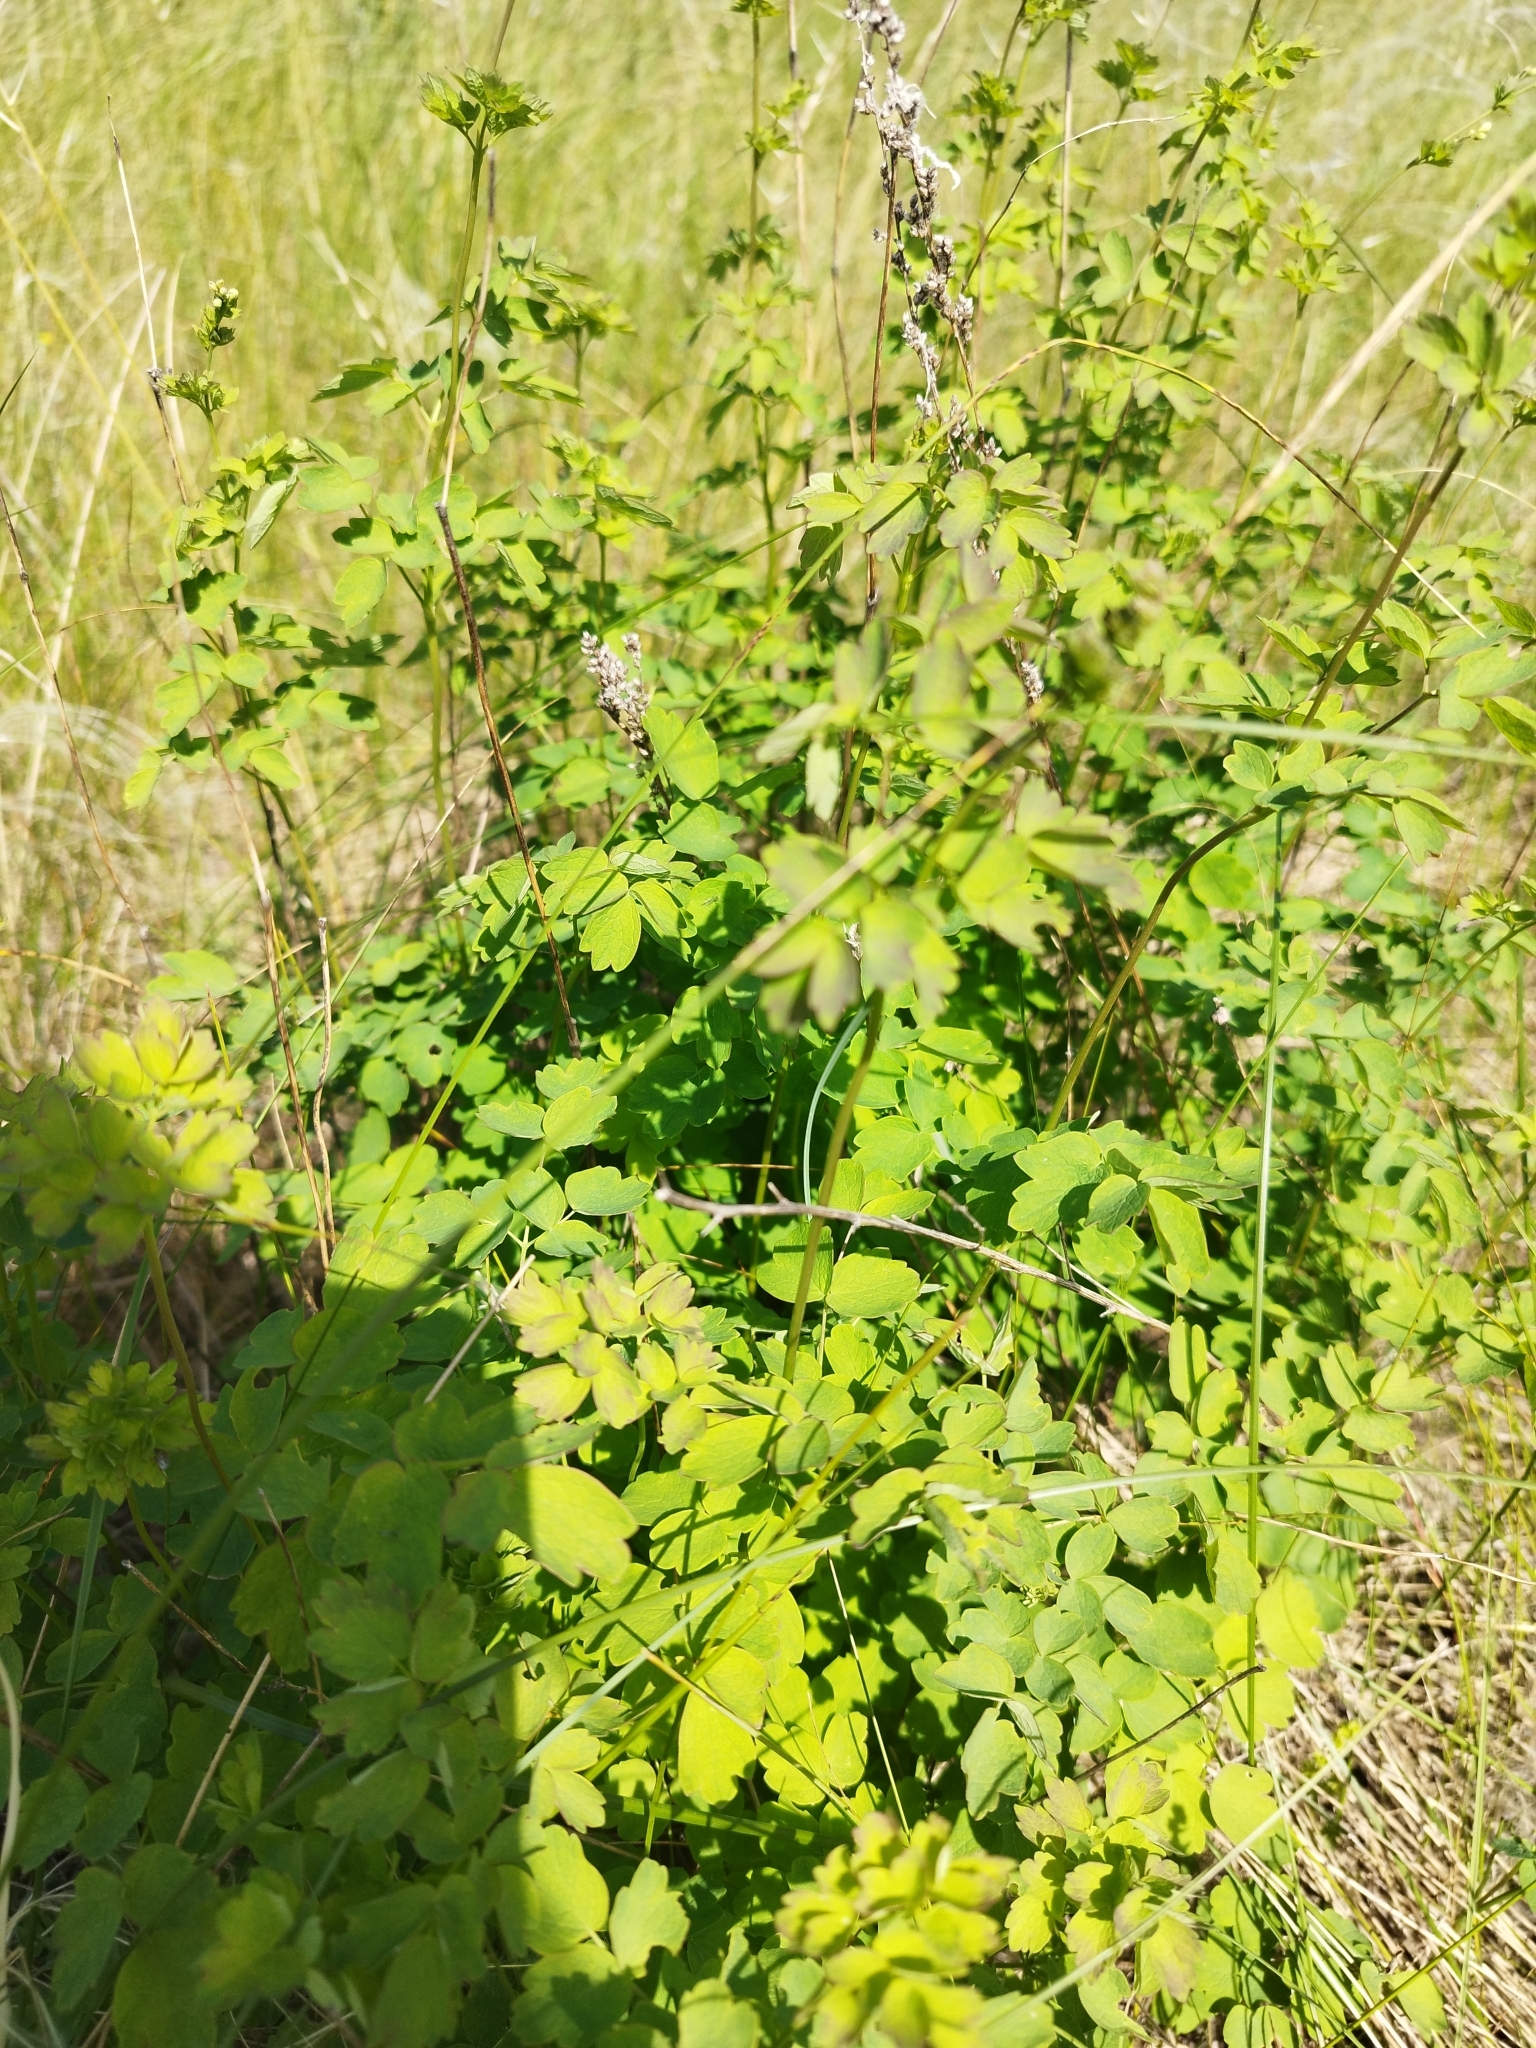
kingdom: Plantae
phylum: Tracheophyta
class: Magnoliopsida
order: Ranunculales
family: Ranunculaceae
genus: Thalictrum
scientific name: Thalictrum minus
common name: Lesser meadow-rue
